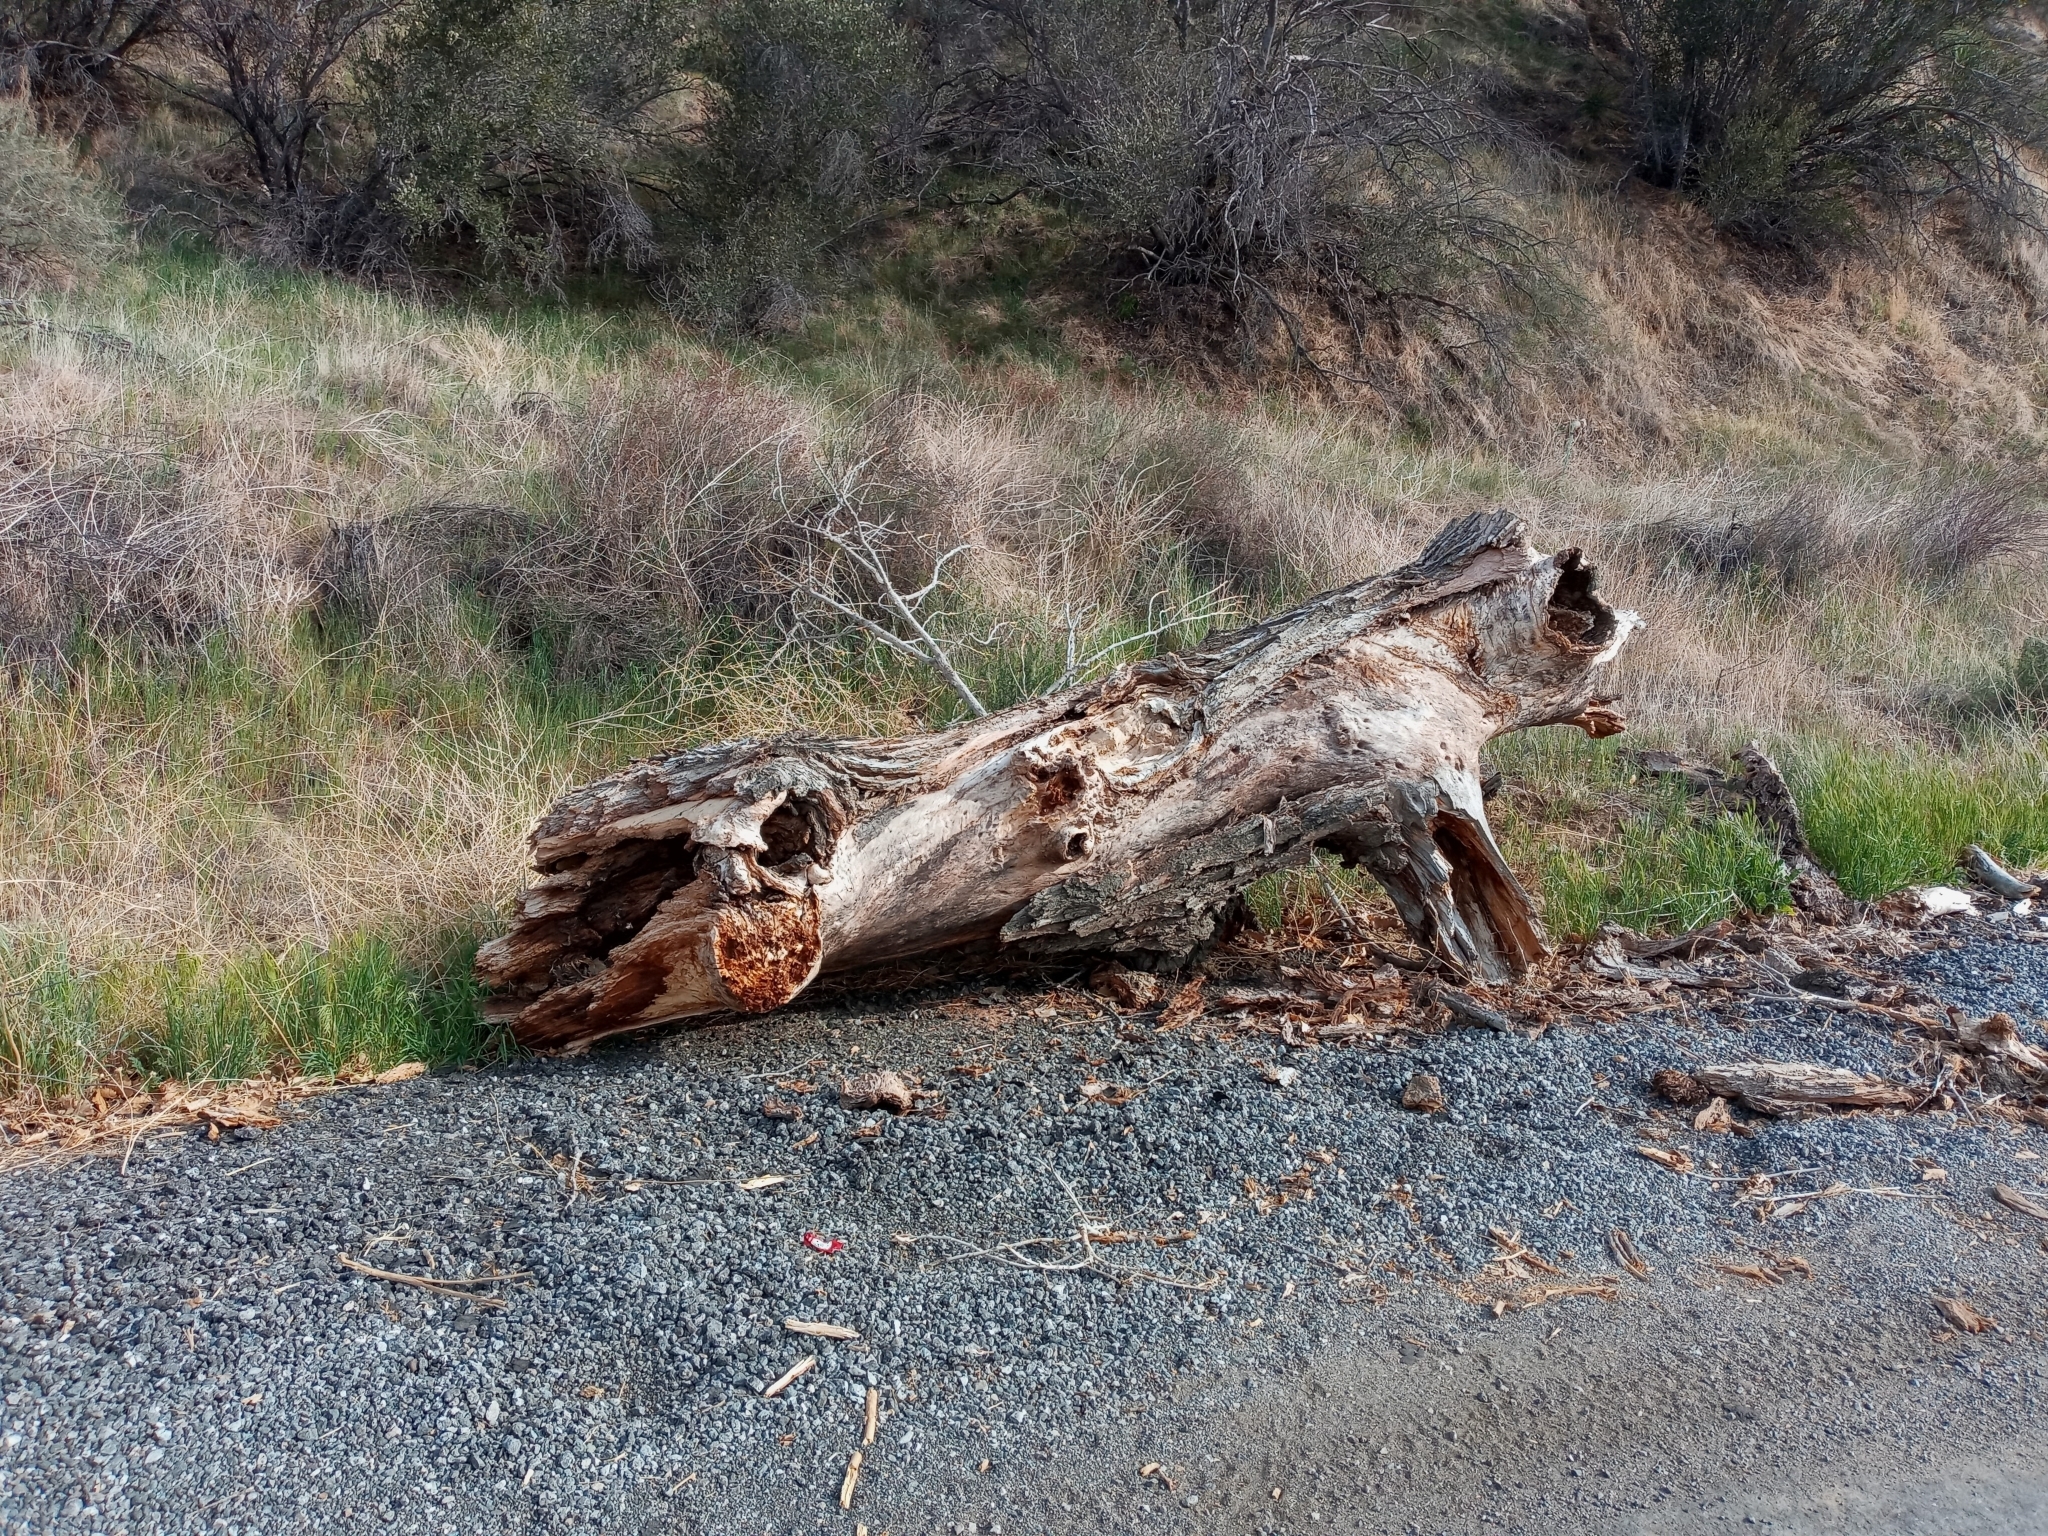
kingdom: Animalia
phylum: Arthropoda
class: Insecta
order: Hymenoptera
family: Apidae
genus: Apis
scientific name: Apis mellifera
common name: Honey bee
